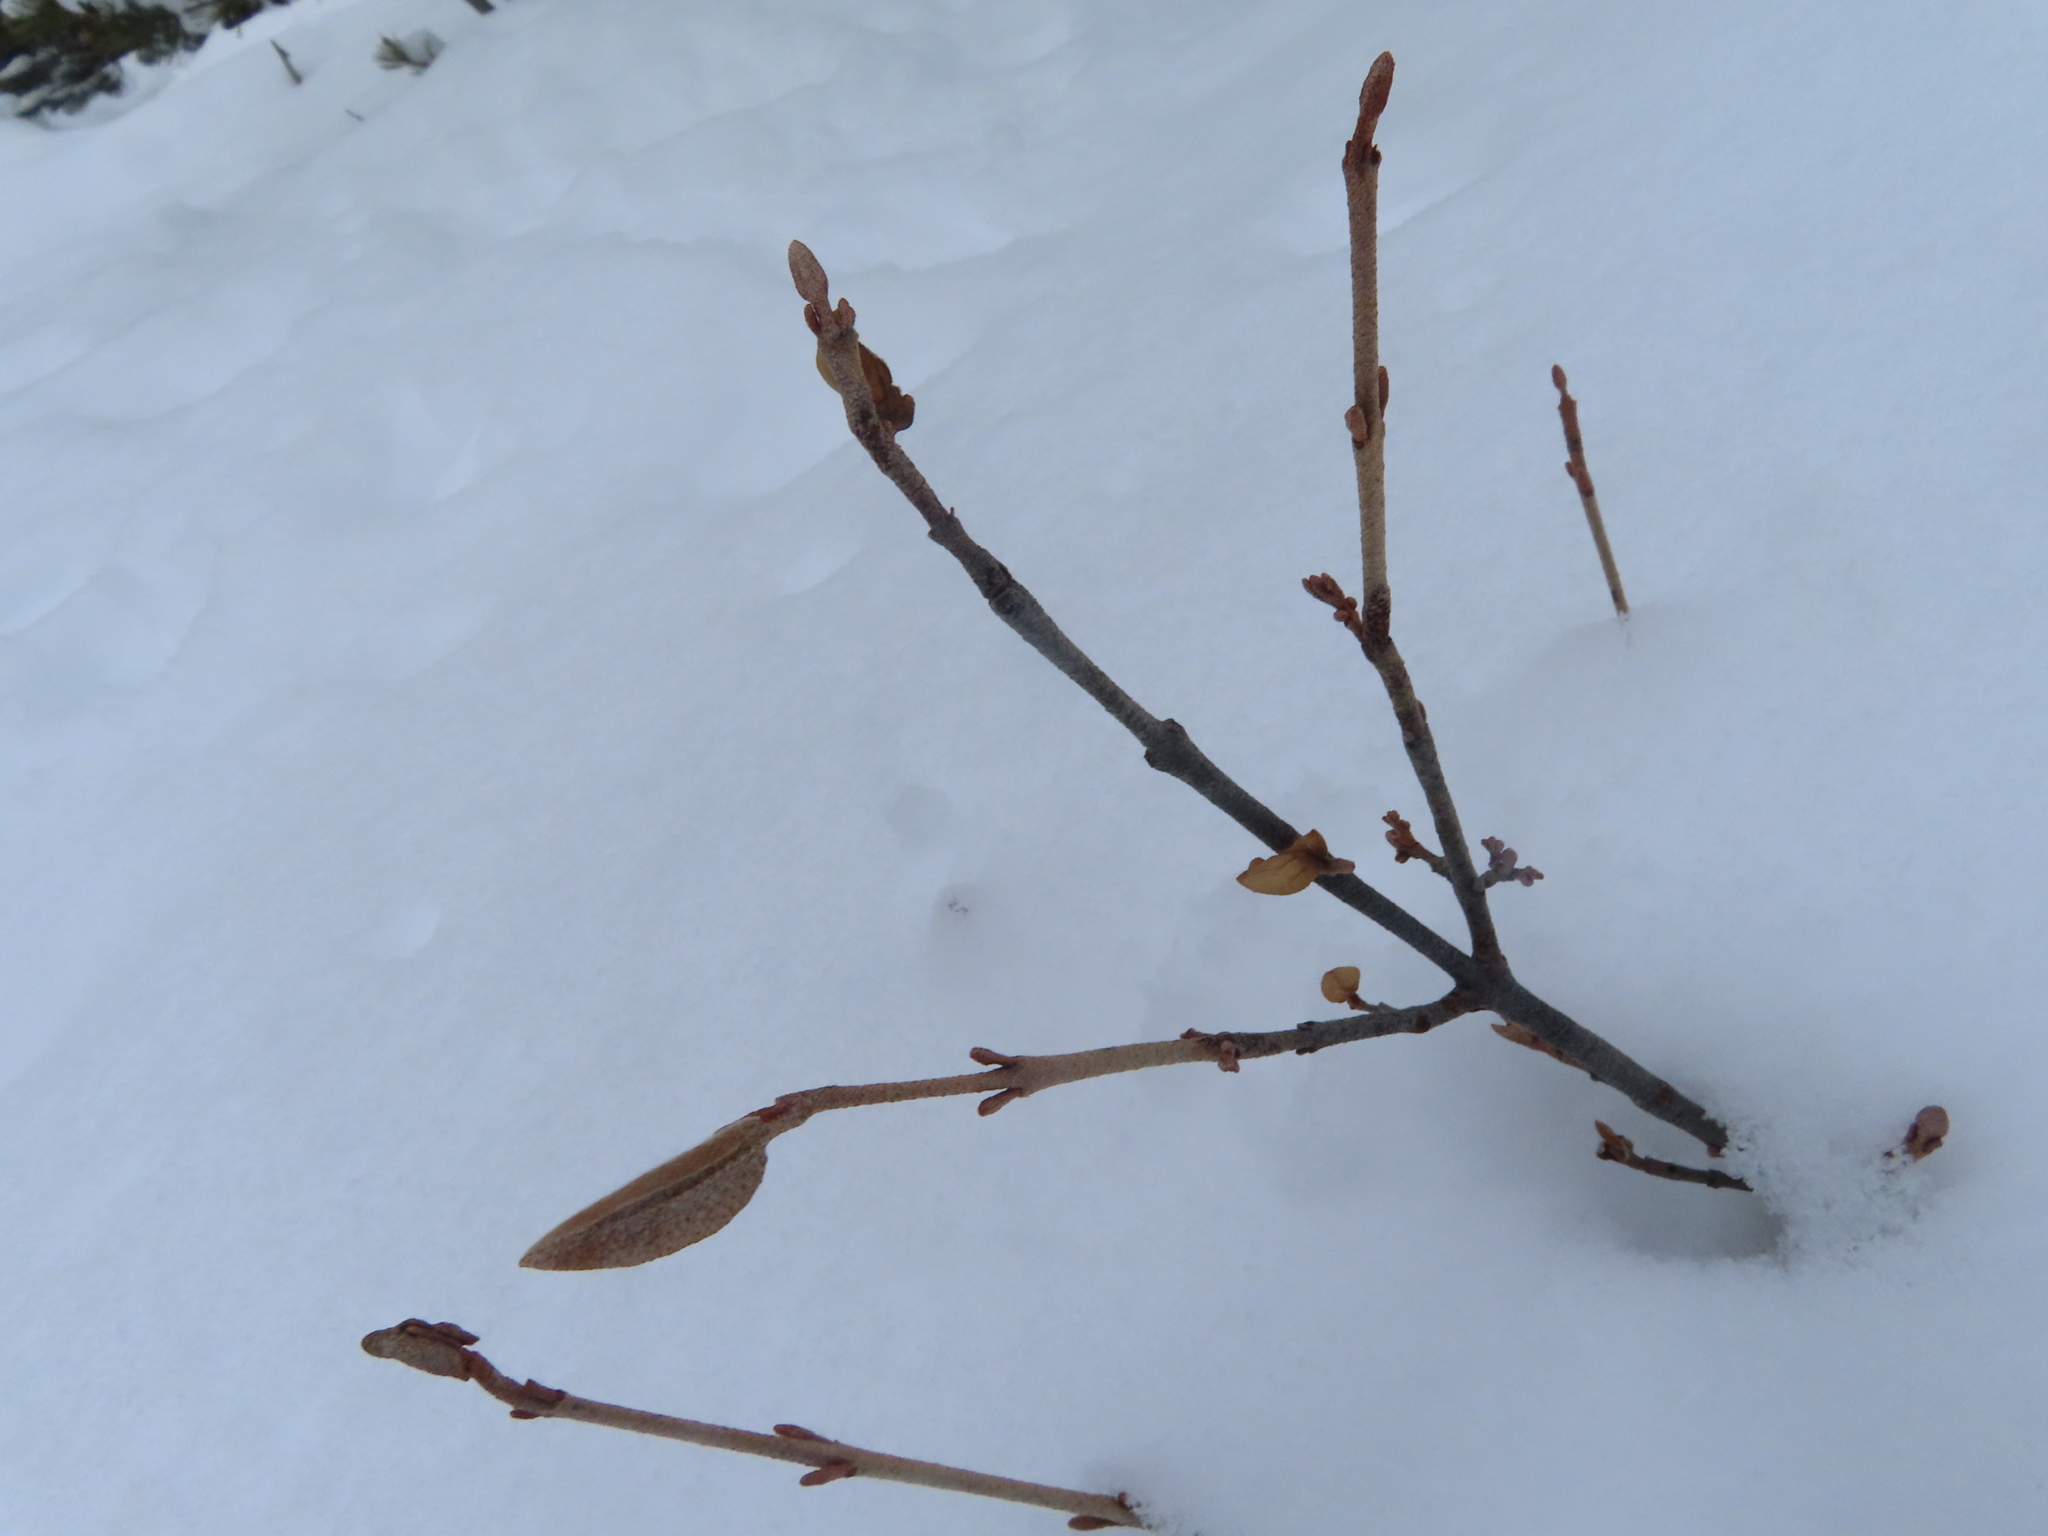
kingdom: Plantae
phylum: Tracheophyta
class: Magnoliopsida
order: Rosales
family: Elaeagnaceae
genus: Shepherdia
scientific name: Shepherdia canadensis
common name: Soapberry
